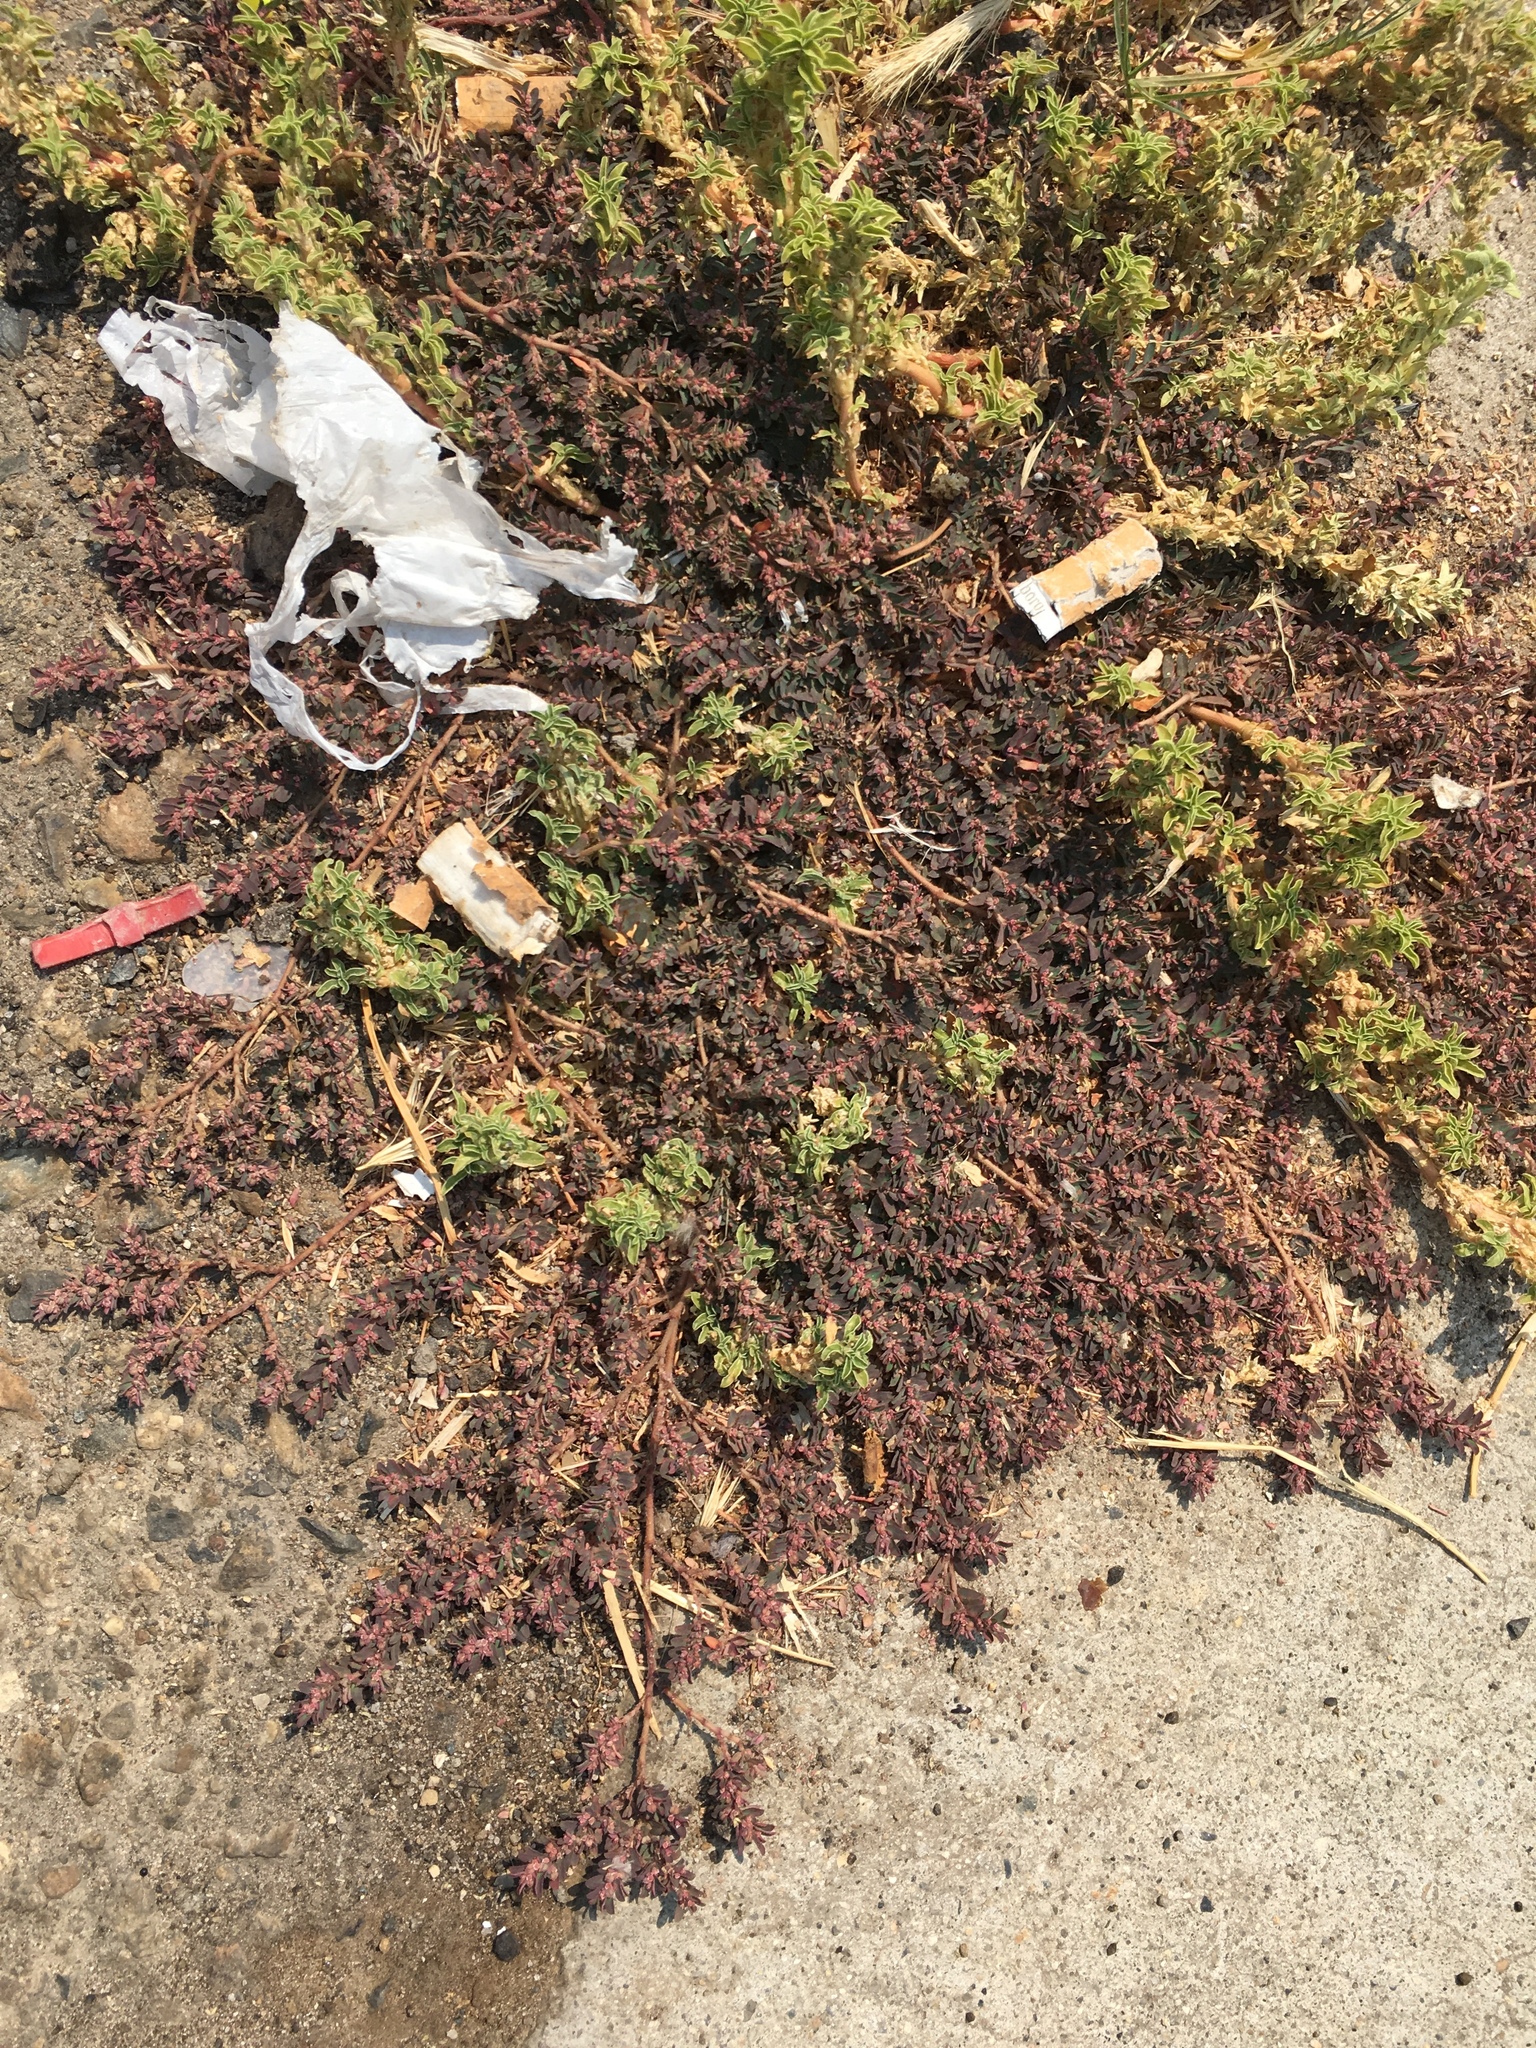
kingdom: Plantae
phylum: Tracheophyta
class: Magnoliopsida
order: Malpighiales
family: Euphorbiaceae
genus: Euphorbia
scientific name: Euphorbia maculata
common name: Spotted spurge
